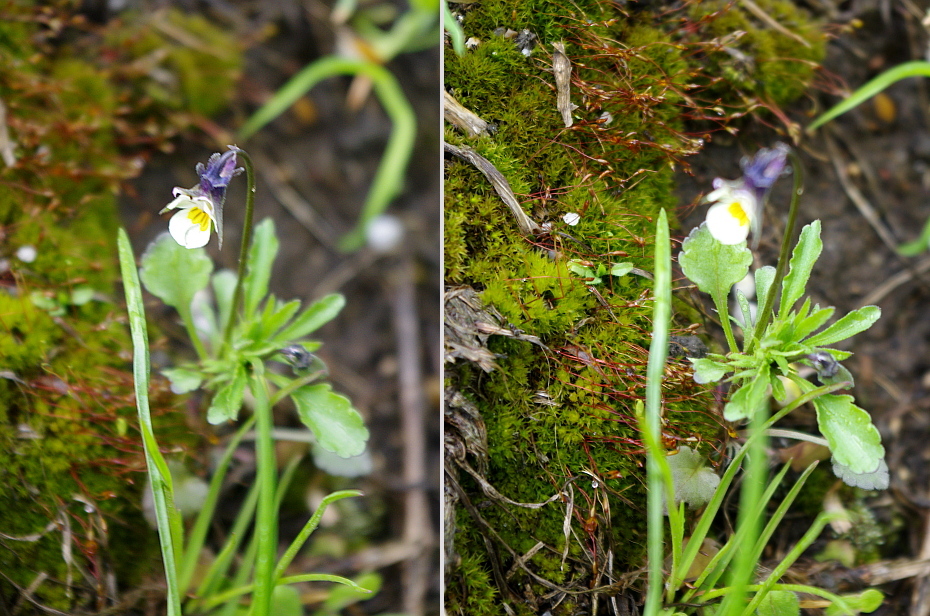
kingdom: Plantae
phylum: Tracheophyta
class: Magnoliopsida
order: Malpighiales
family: Violaceae
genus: Viola
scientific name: Viola arvensis
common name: Field pansy
